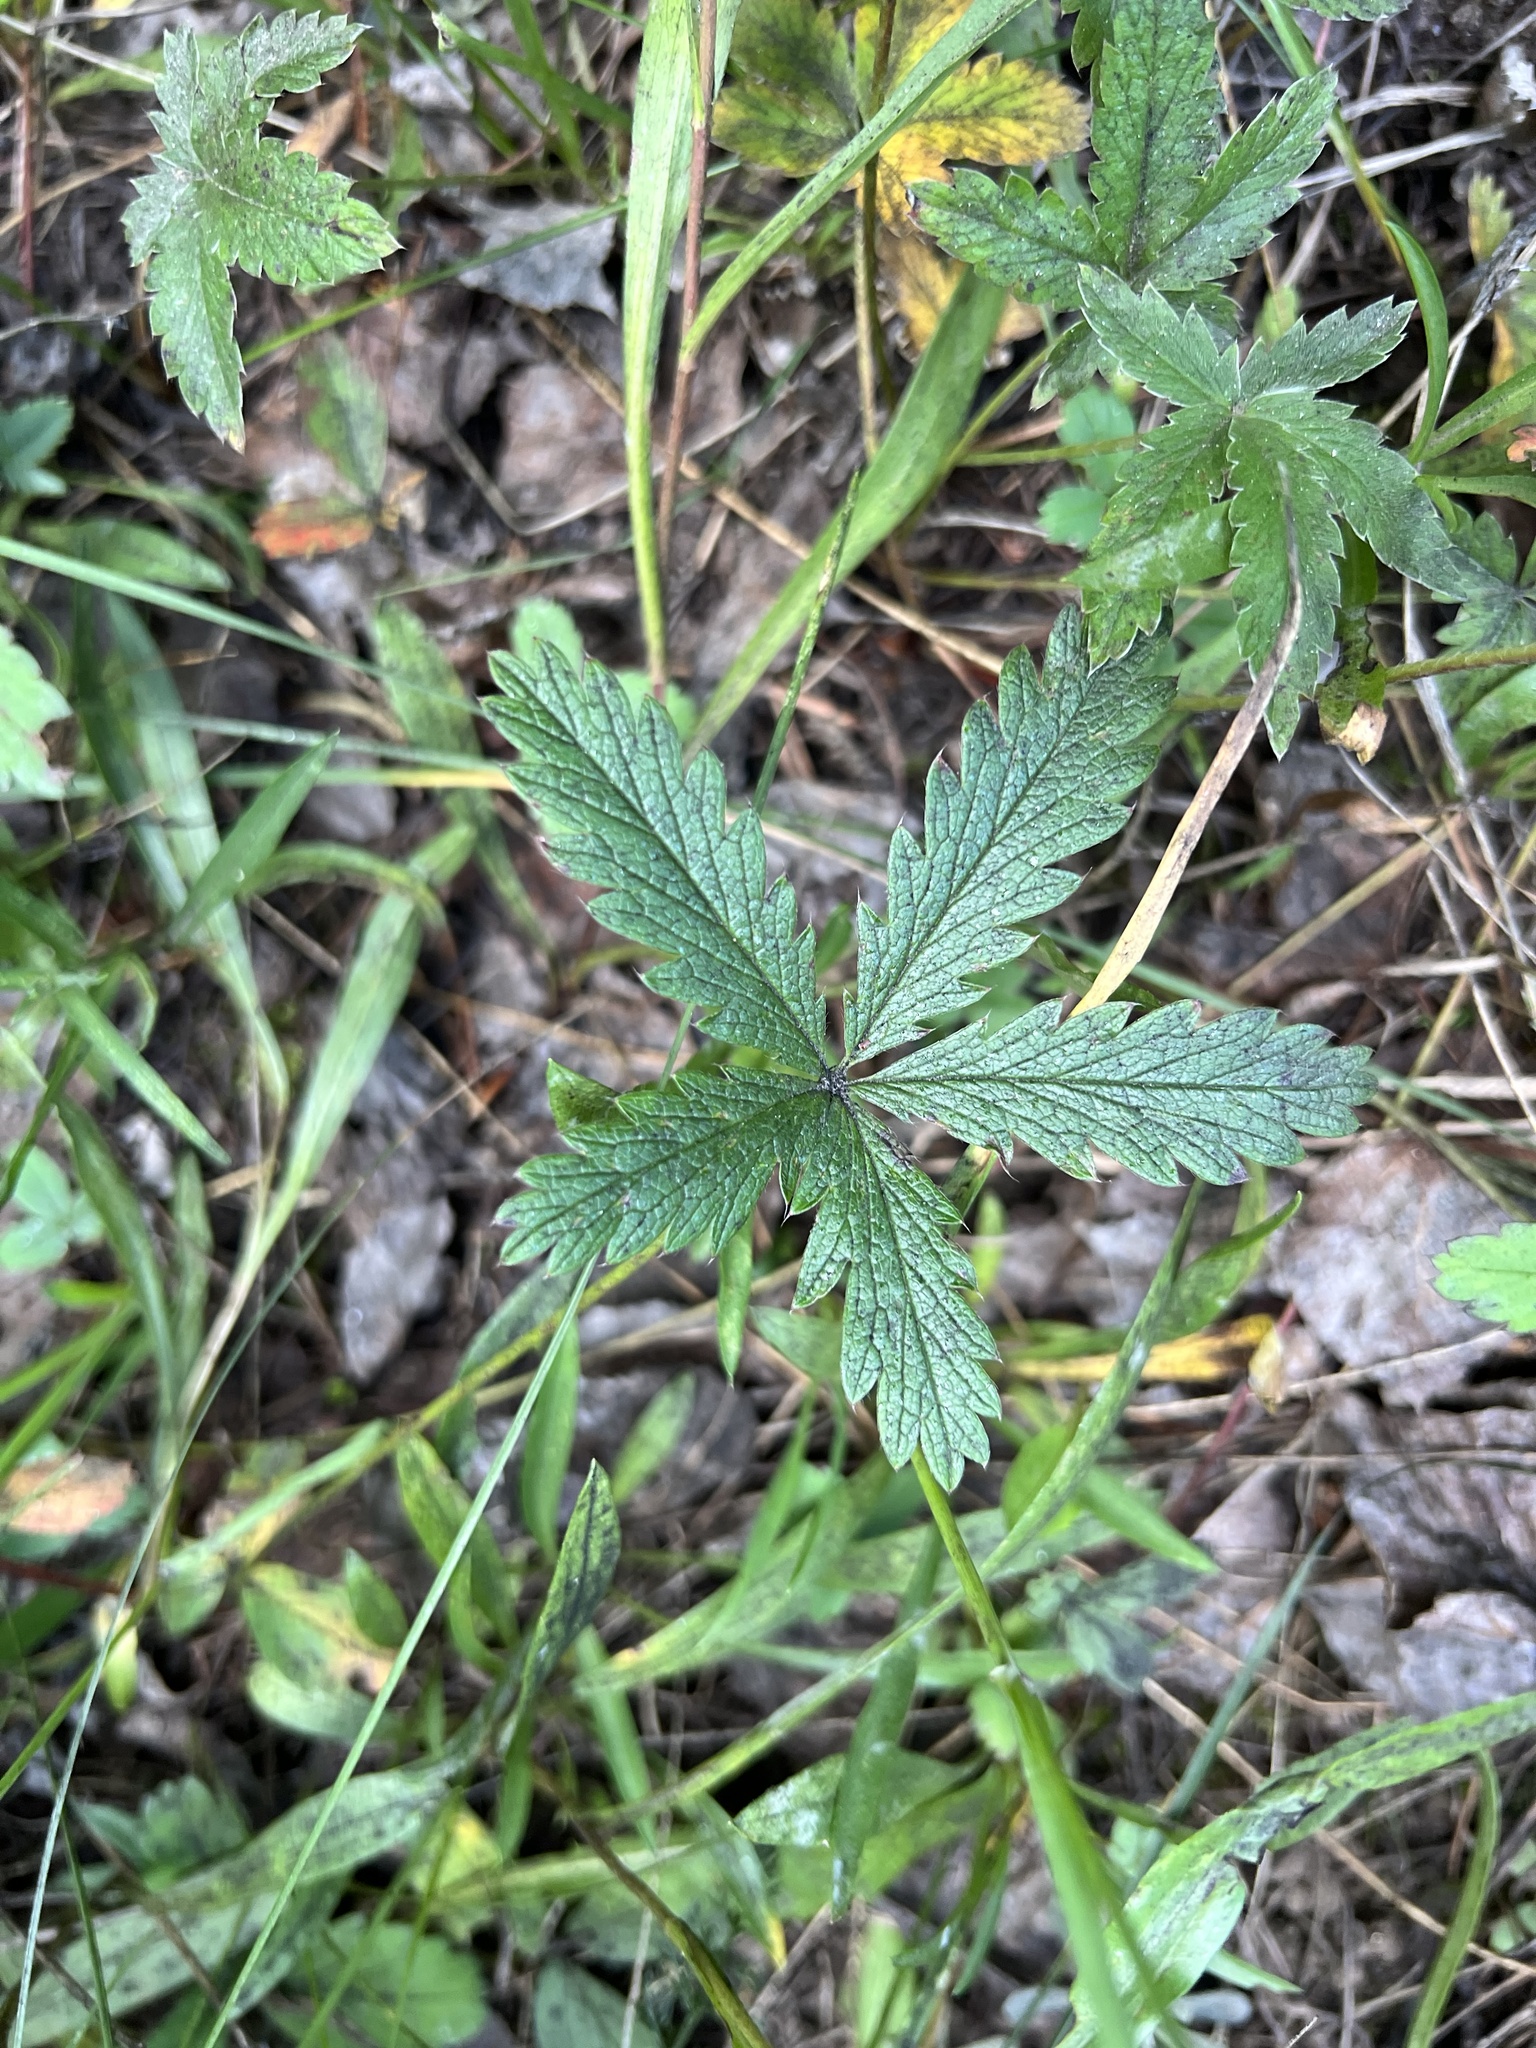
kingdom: Plantae
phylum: Tracheophyta
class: Magnoliopsida
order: Rosales
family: Rosaceae
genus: Potentilla
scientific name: Potentilla pulcherrima
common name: Beautiful cinquefoil
